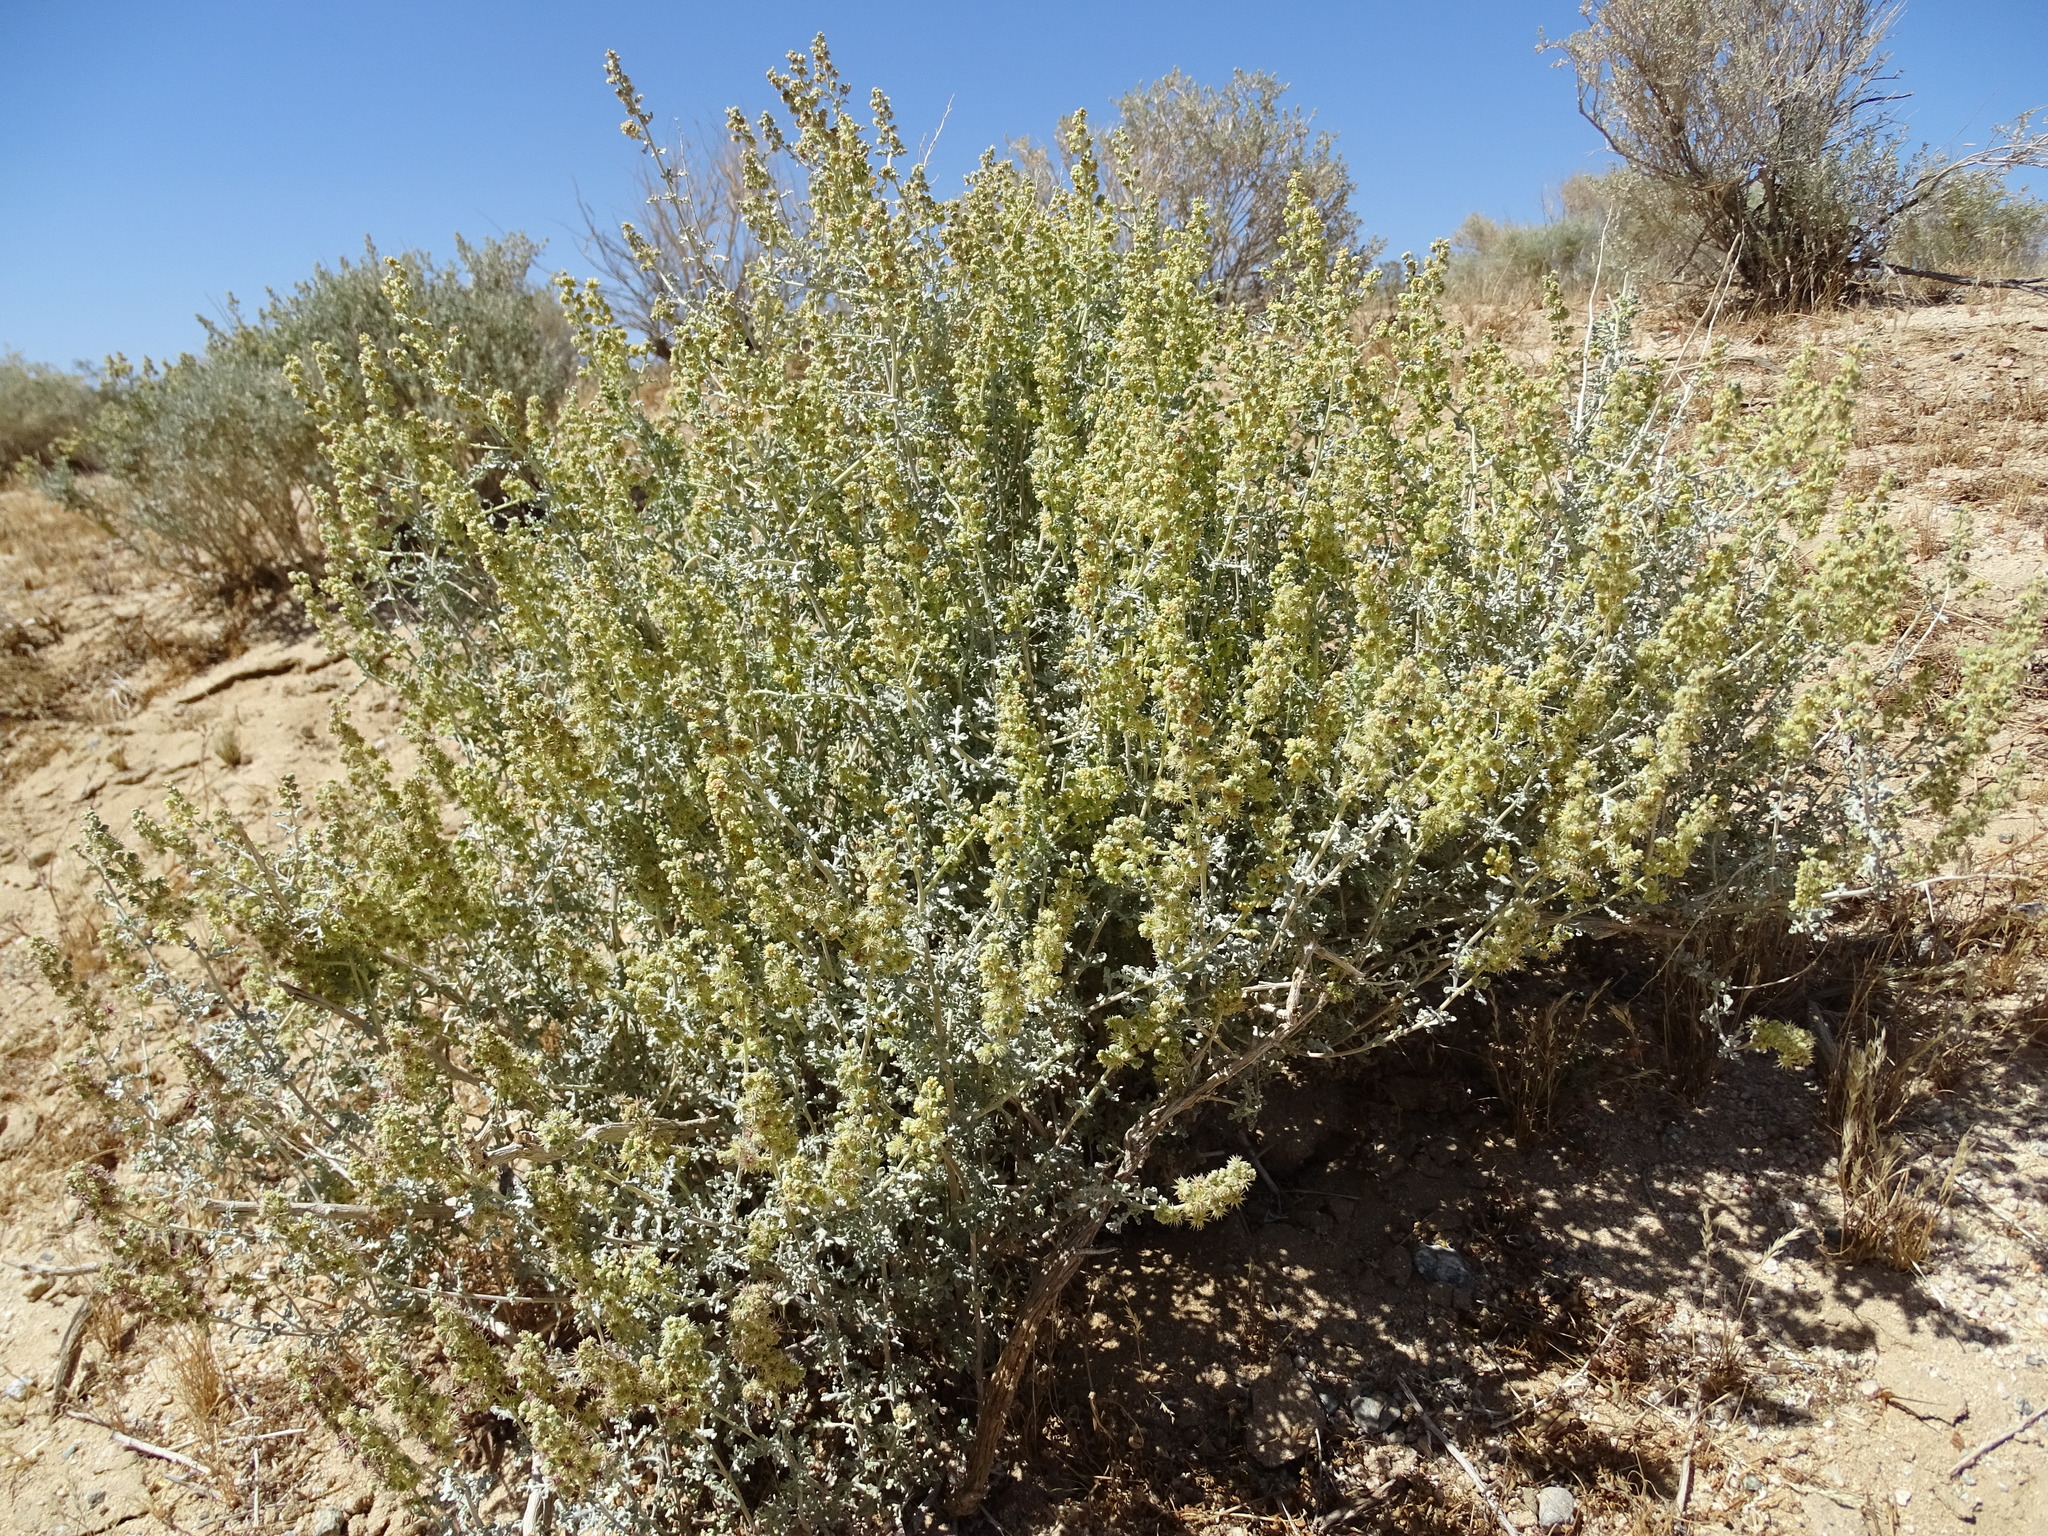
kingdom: Plantae
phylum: Tracheophyta
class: Magnoliopsida
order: Asterales
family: Asteraceae
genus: Ambrosia
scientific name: Ambrosia dumosa
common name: Bur-sage
